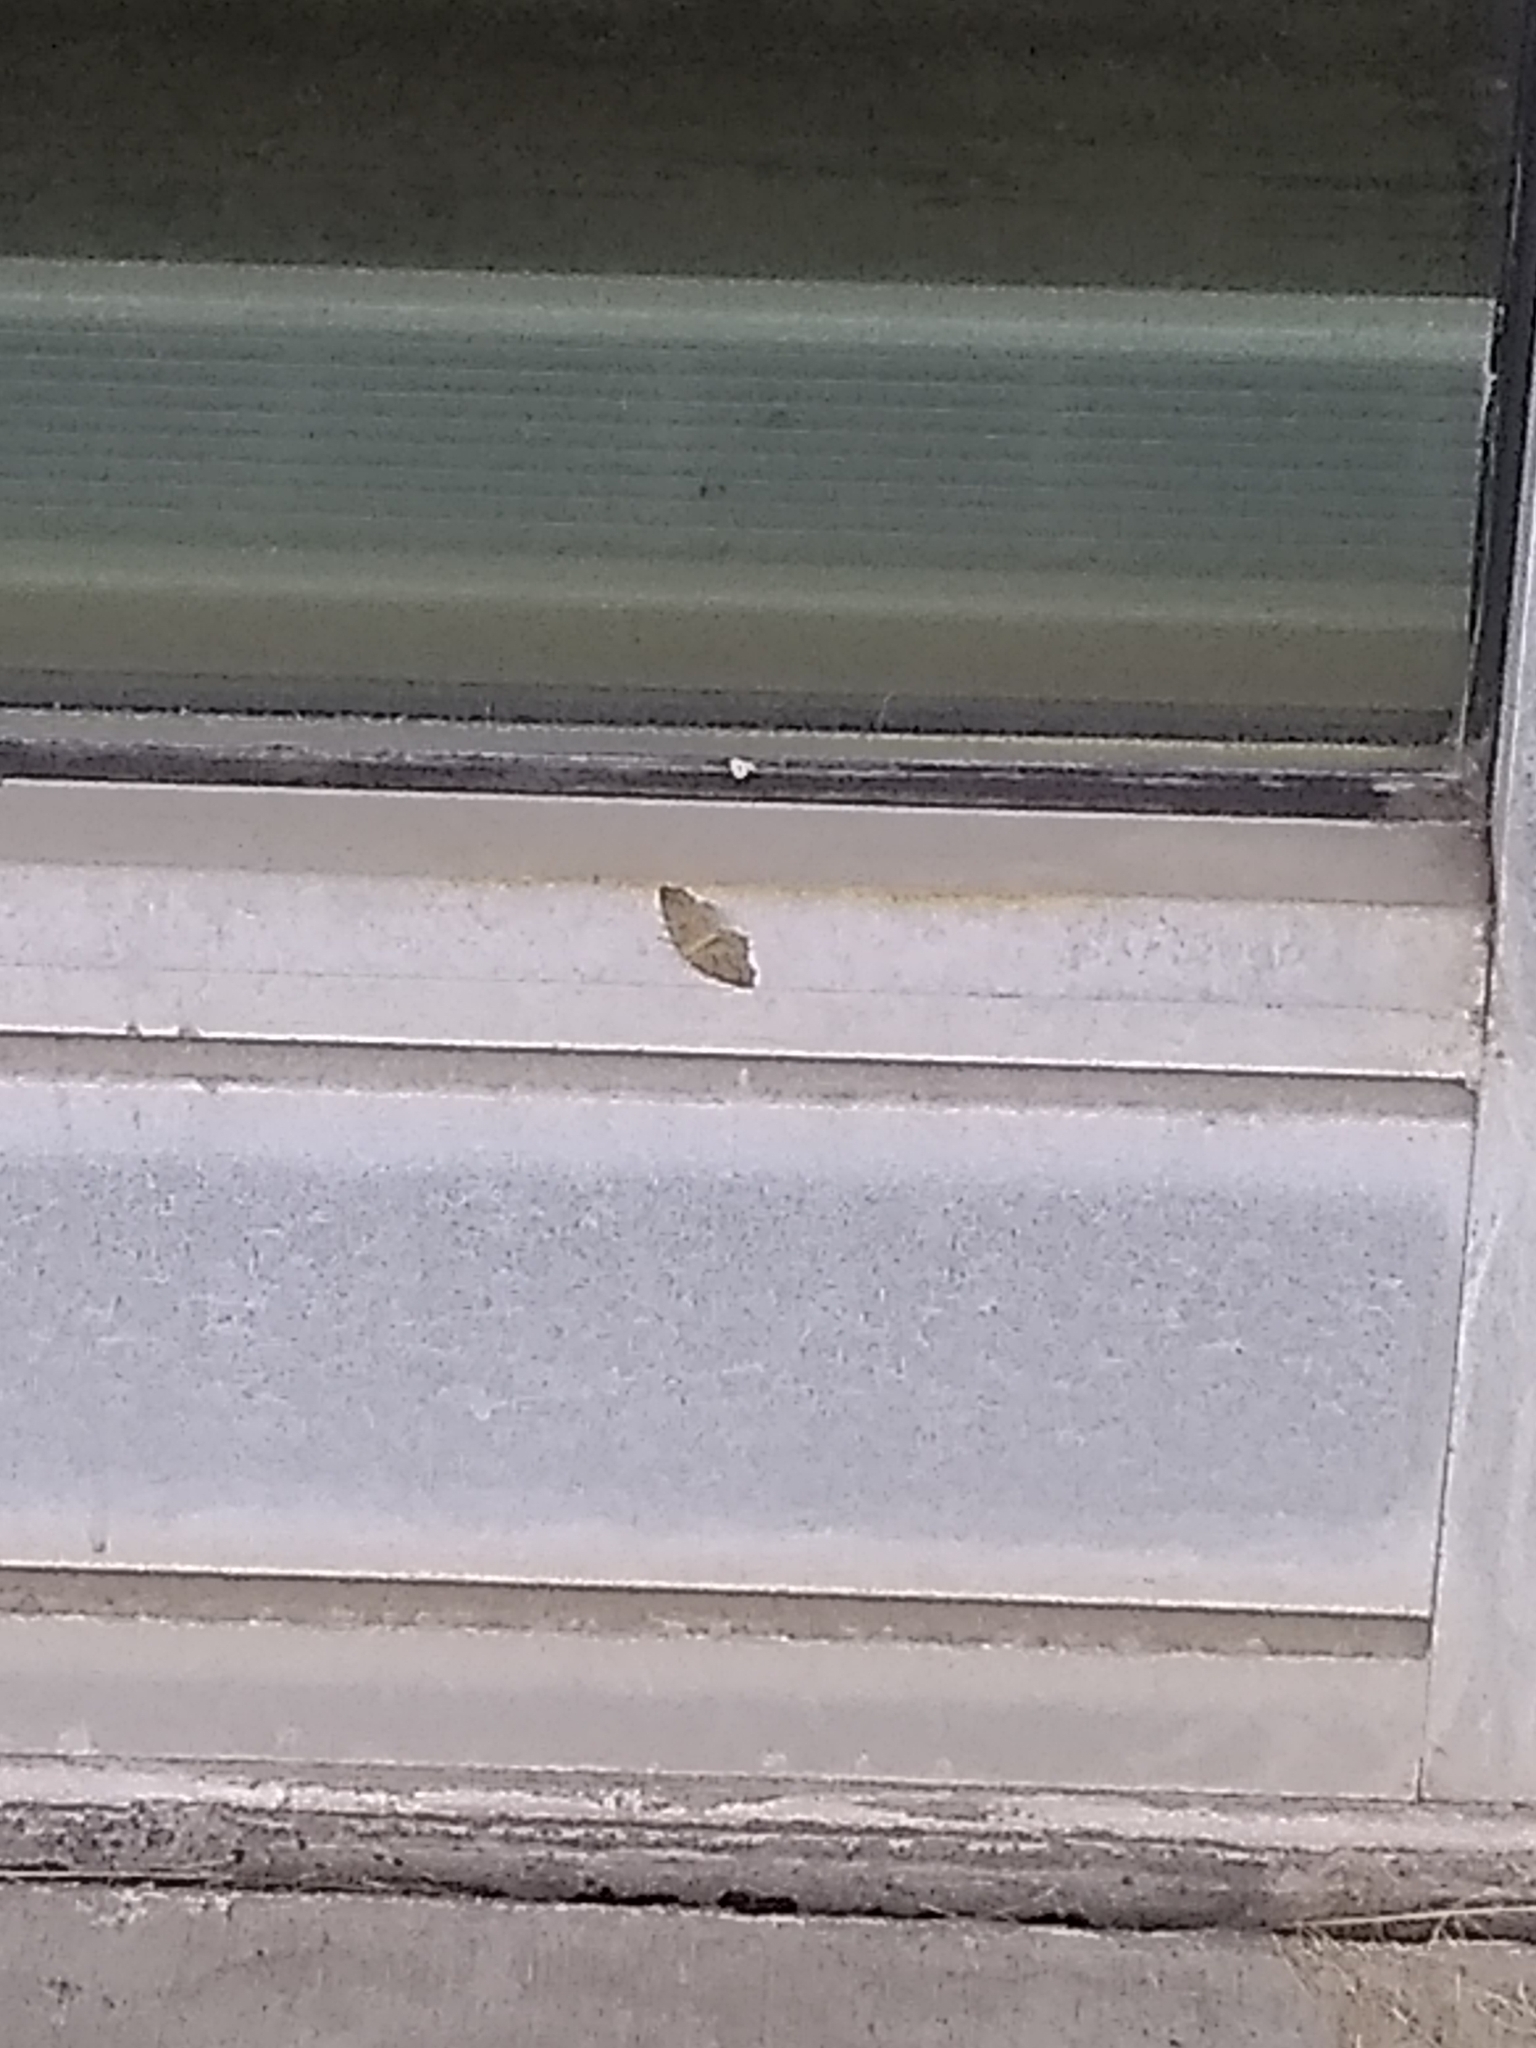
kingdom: Animalia
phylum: Arthropoda
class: Insecta
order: Lepidoptera
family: Geometridae
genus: Lambdina
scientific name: Lambdina fiscellaria
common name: Hemlock looper
